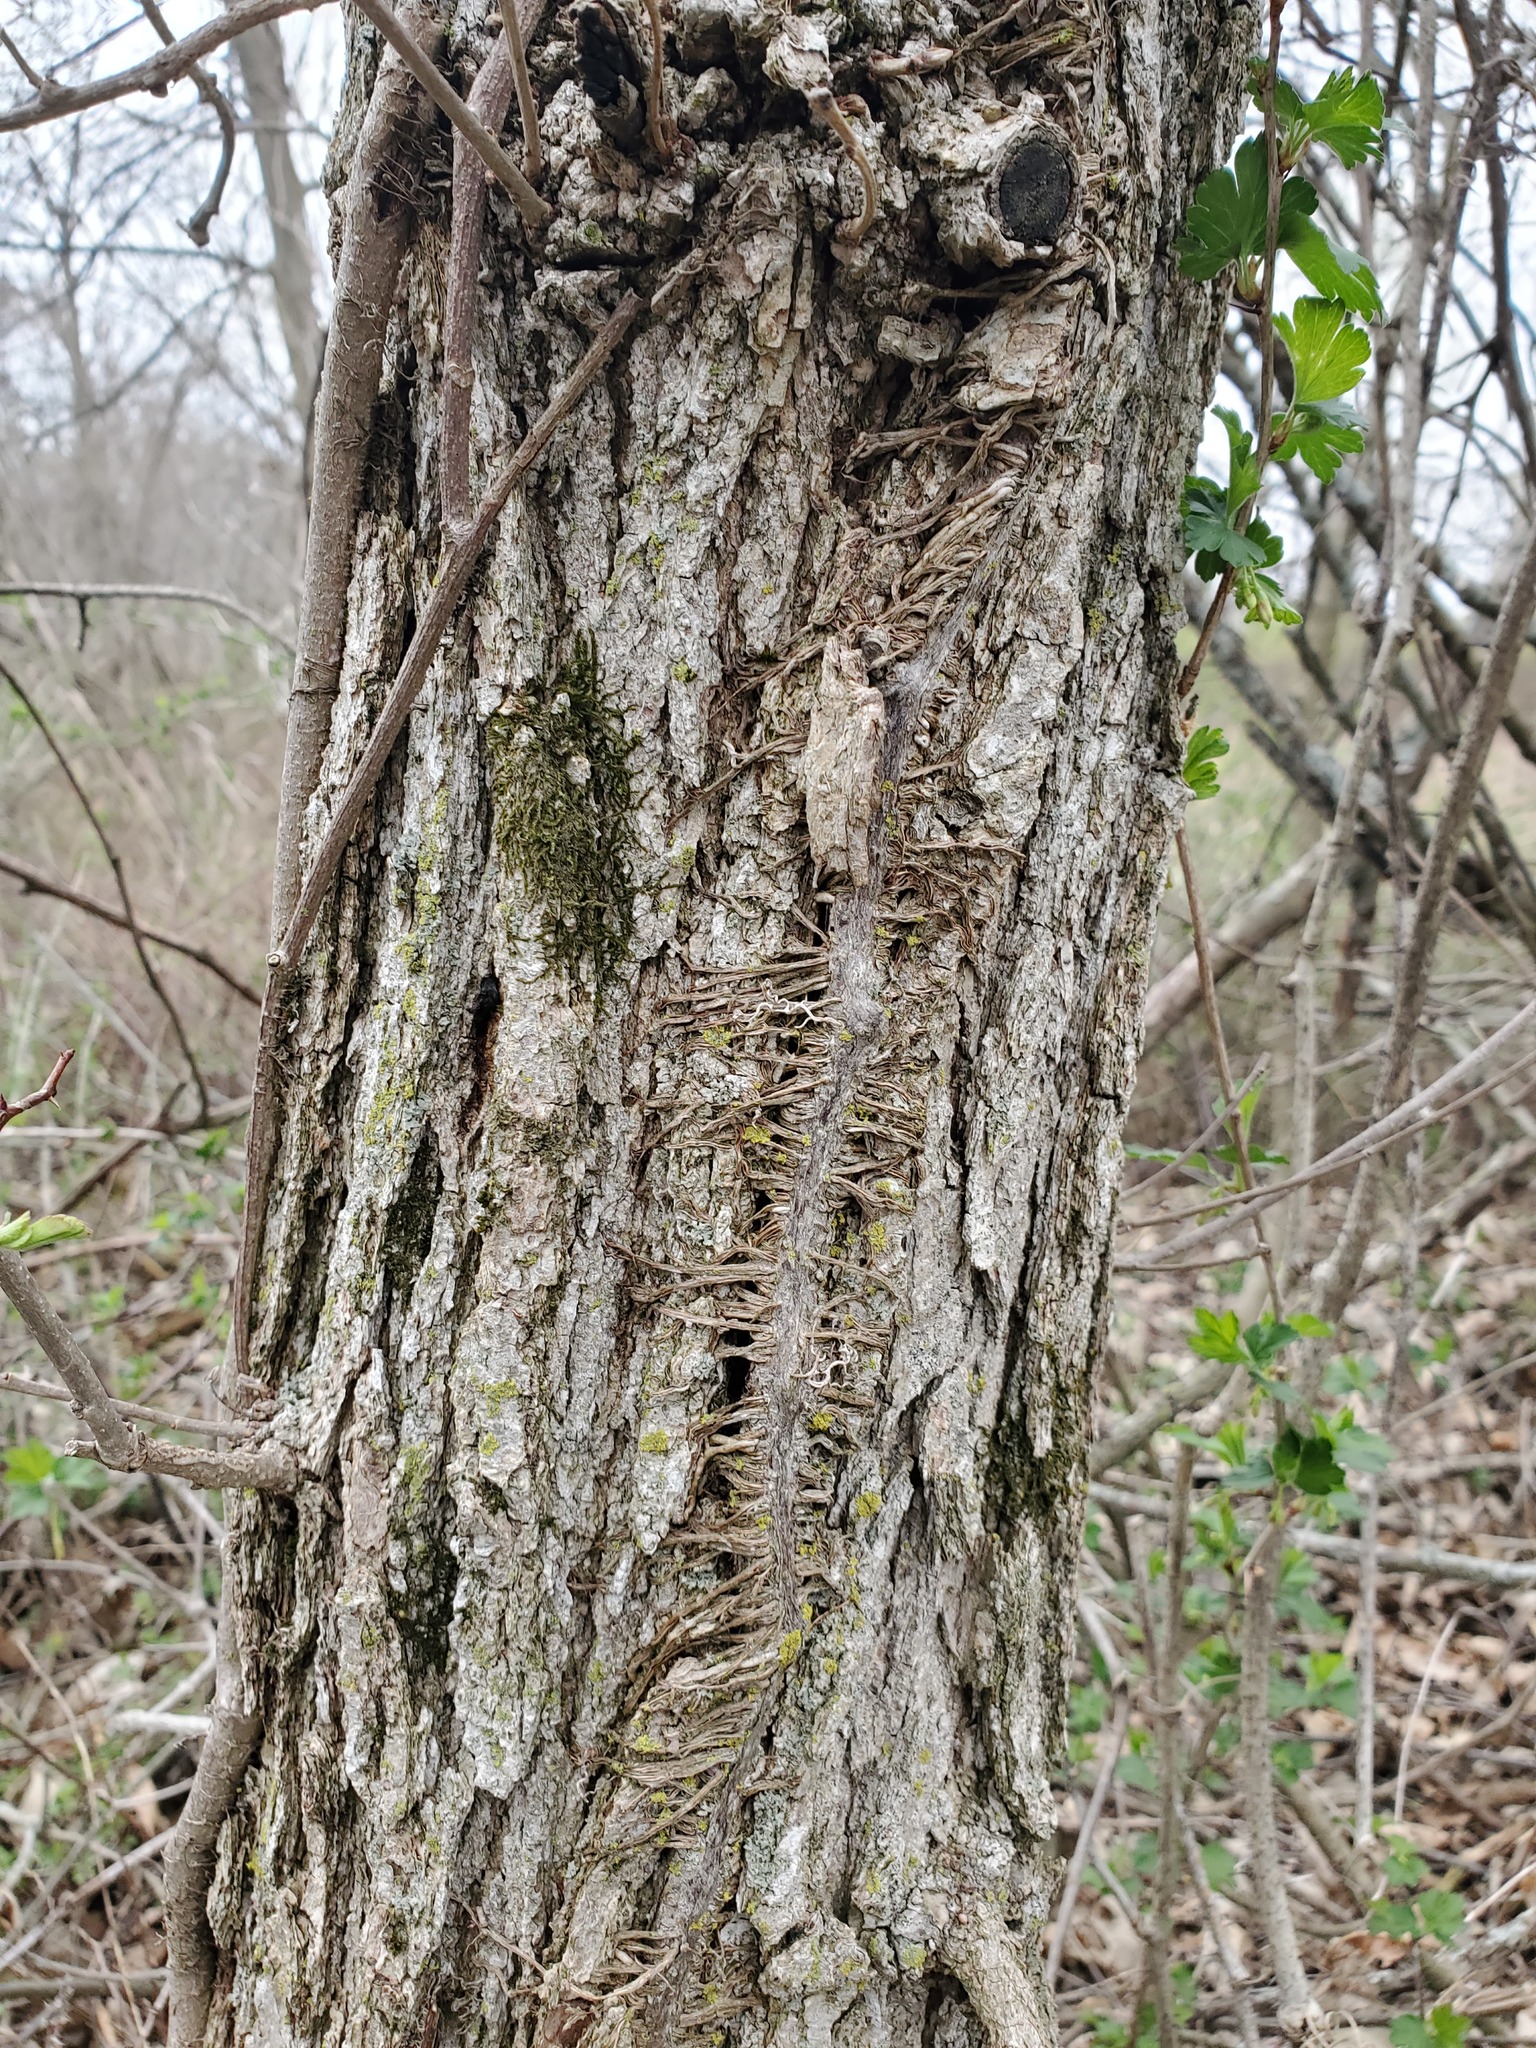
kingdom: Plantae
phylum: Tracheophyta
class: Magnoliopsida
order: Vitales
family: Vitaceae
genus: Parthenocissus
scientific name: Parthenocissus quinquefolia
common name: Virginia-creeper
